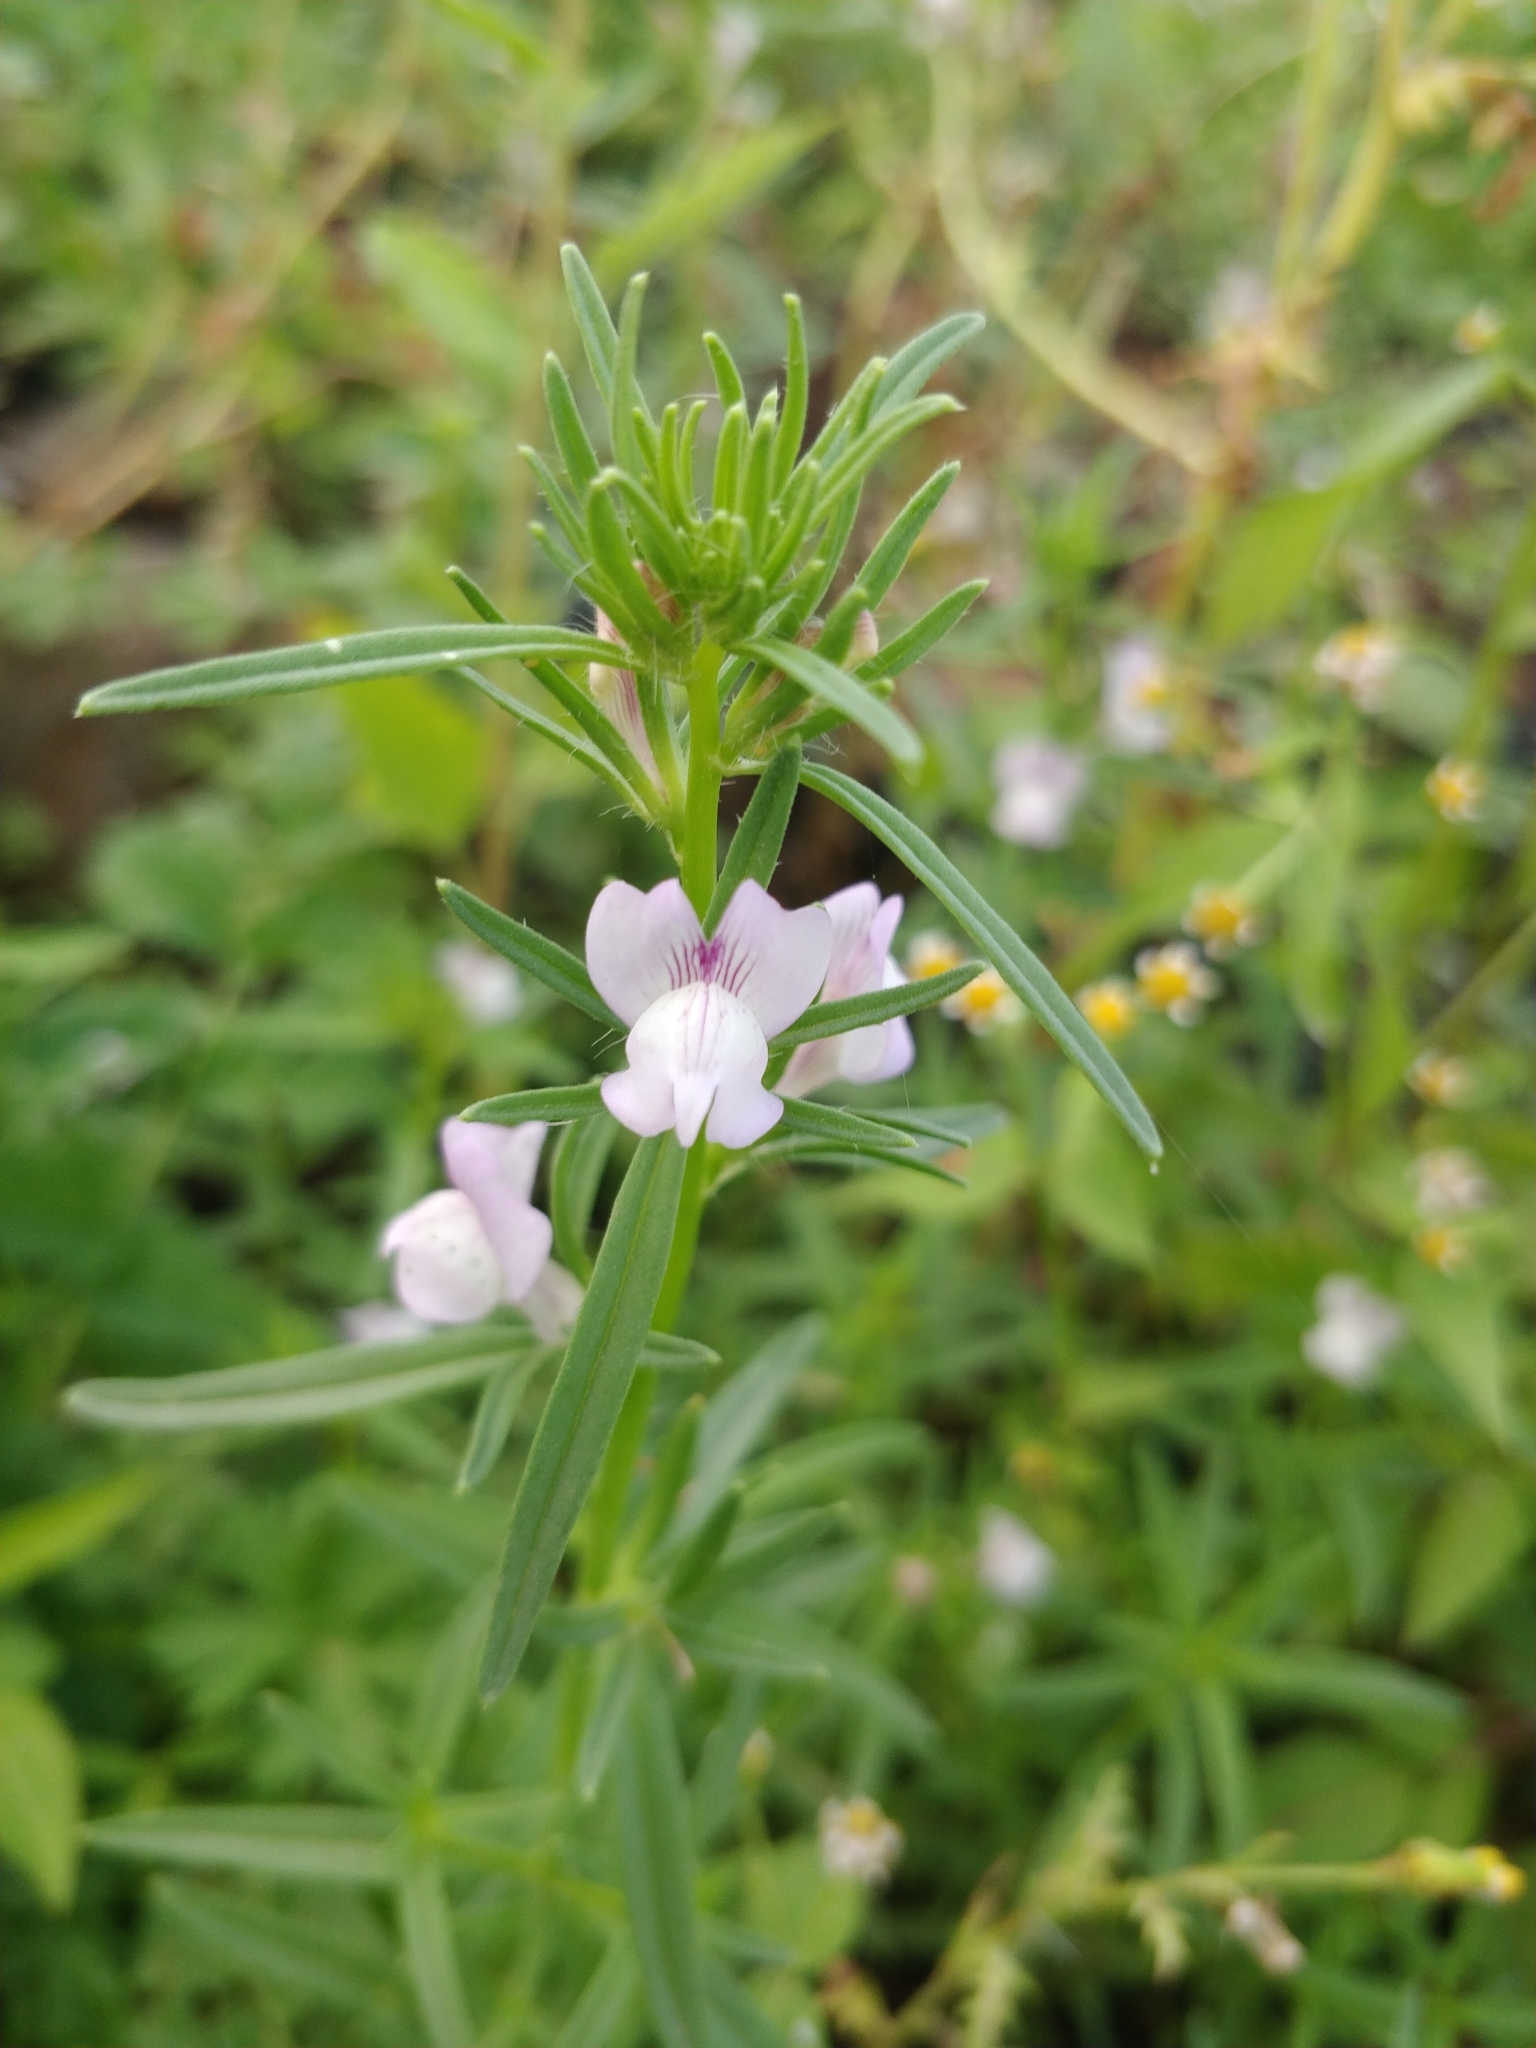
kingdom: Plantae
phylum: Tracheophyta
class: Magnoliopsida
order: Lamiales
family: Plantaginaceae
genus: Misopates
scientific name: Misopates orontium
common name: Weasel's-snout
